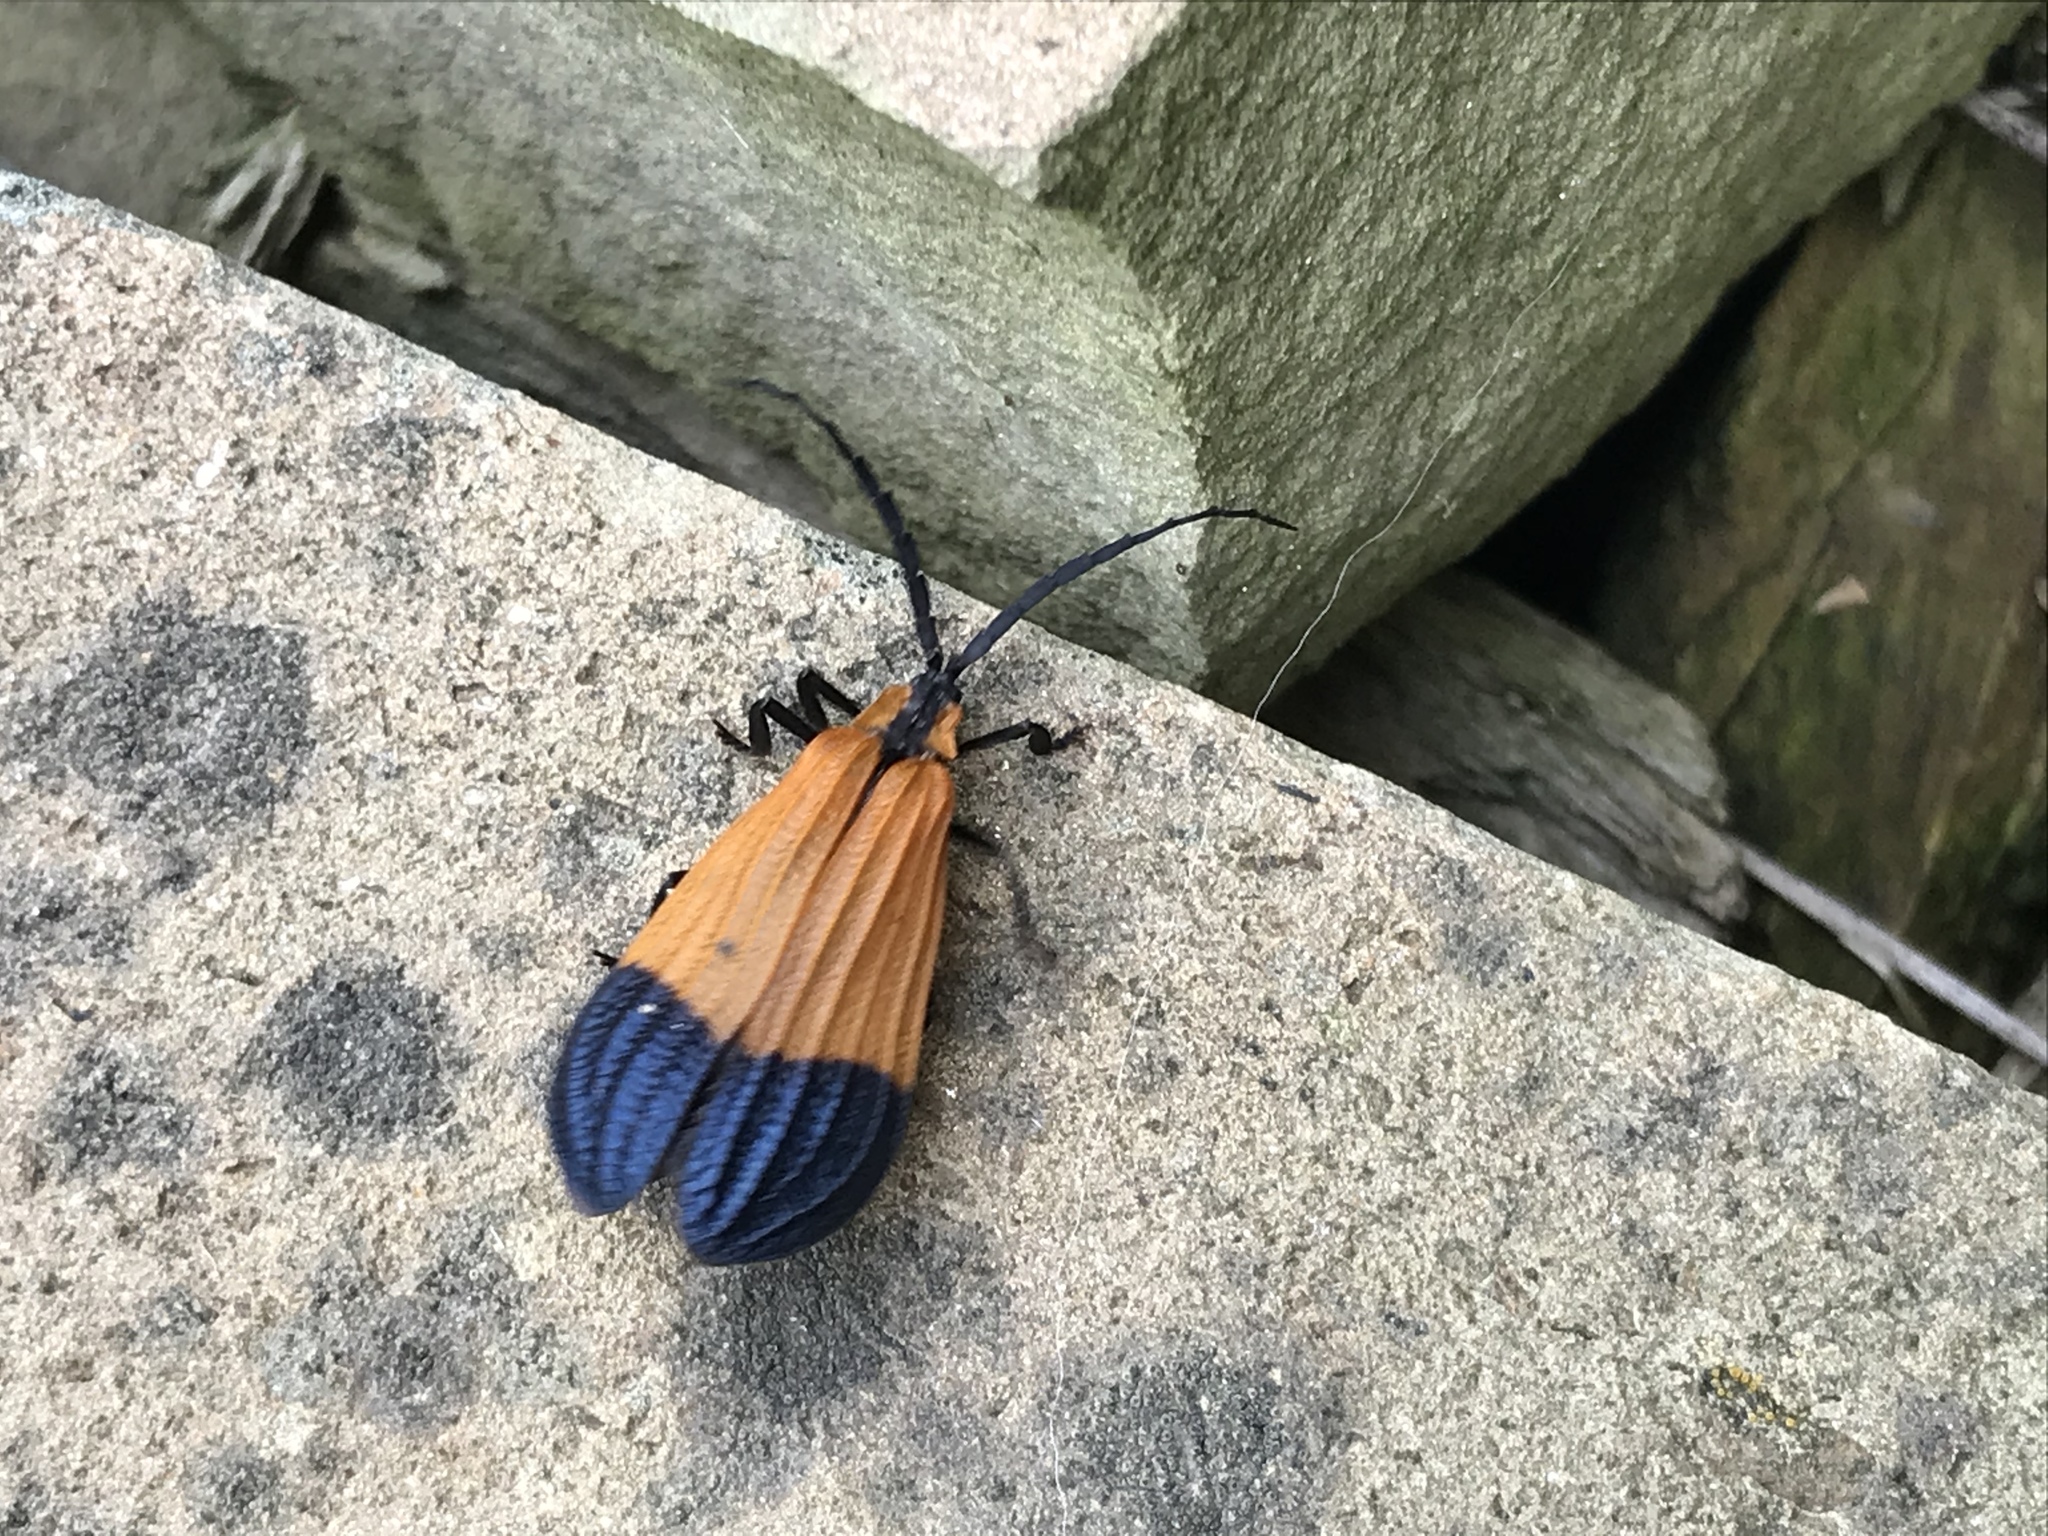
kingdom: Animalia
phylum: Arthropoda
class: Insecta
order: Coleoptera
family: Lycidae
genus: Calopteron
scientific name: Calopteron terminale
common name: End band net-winged beetle
